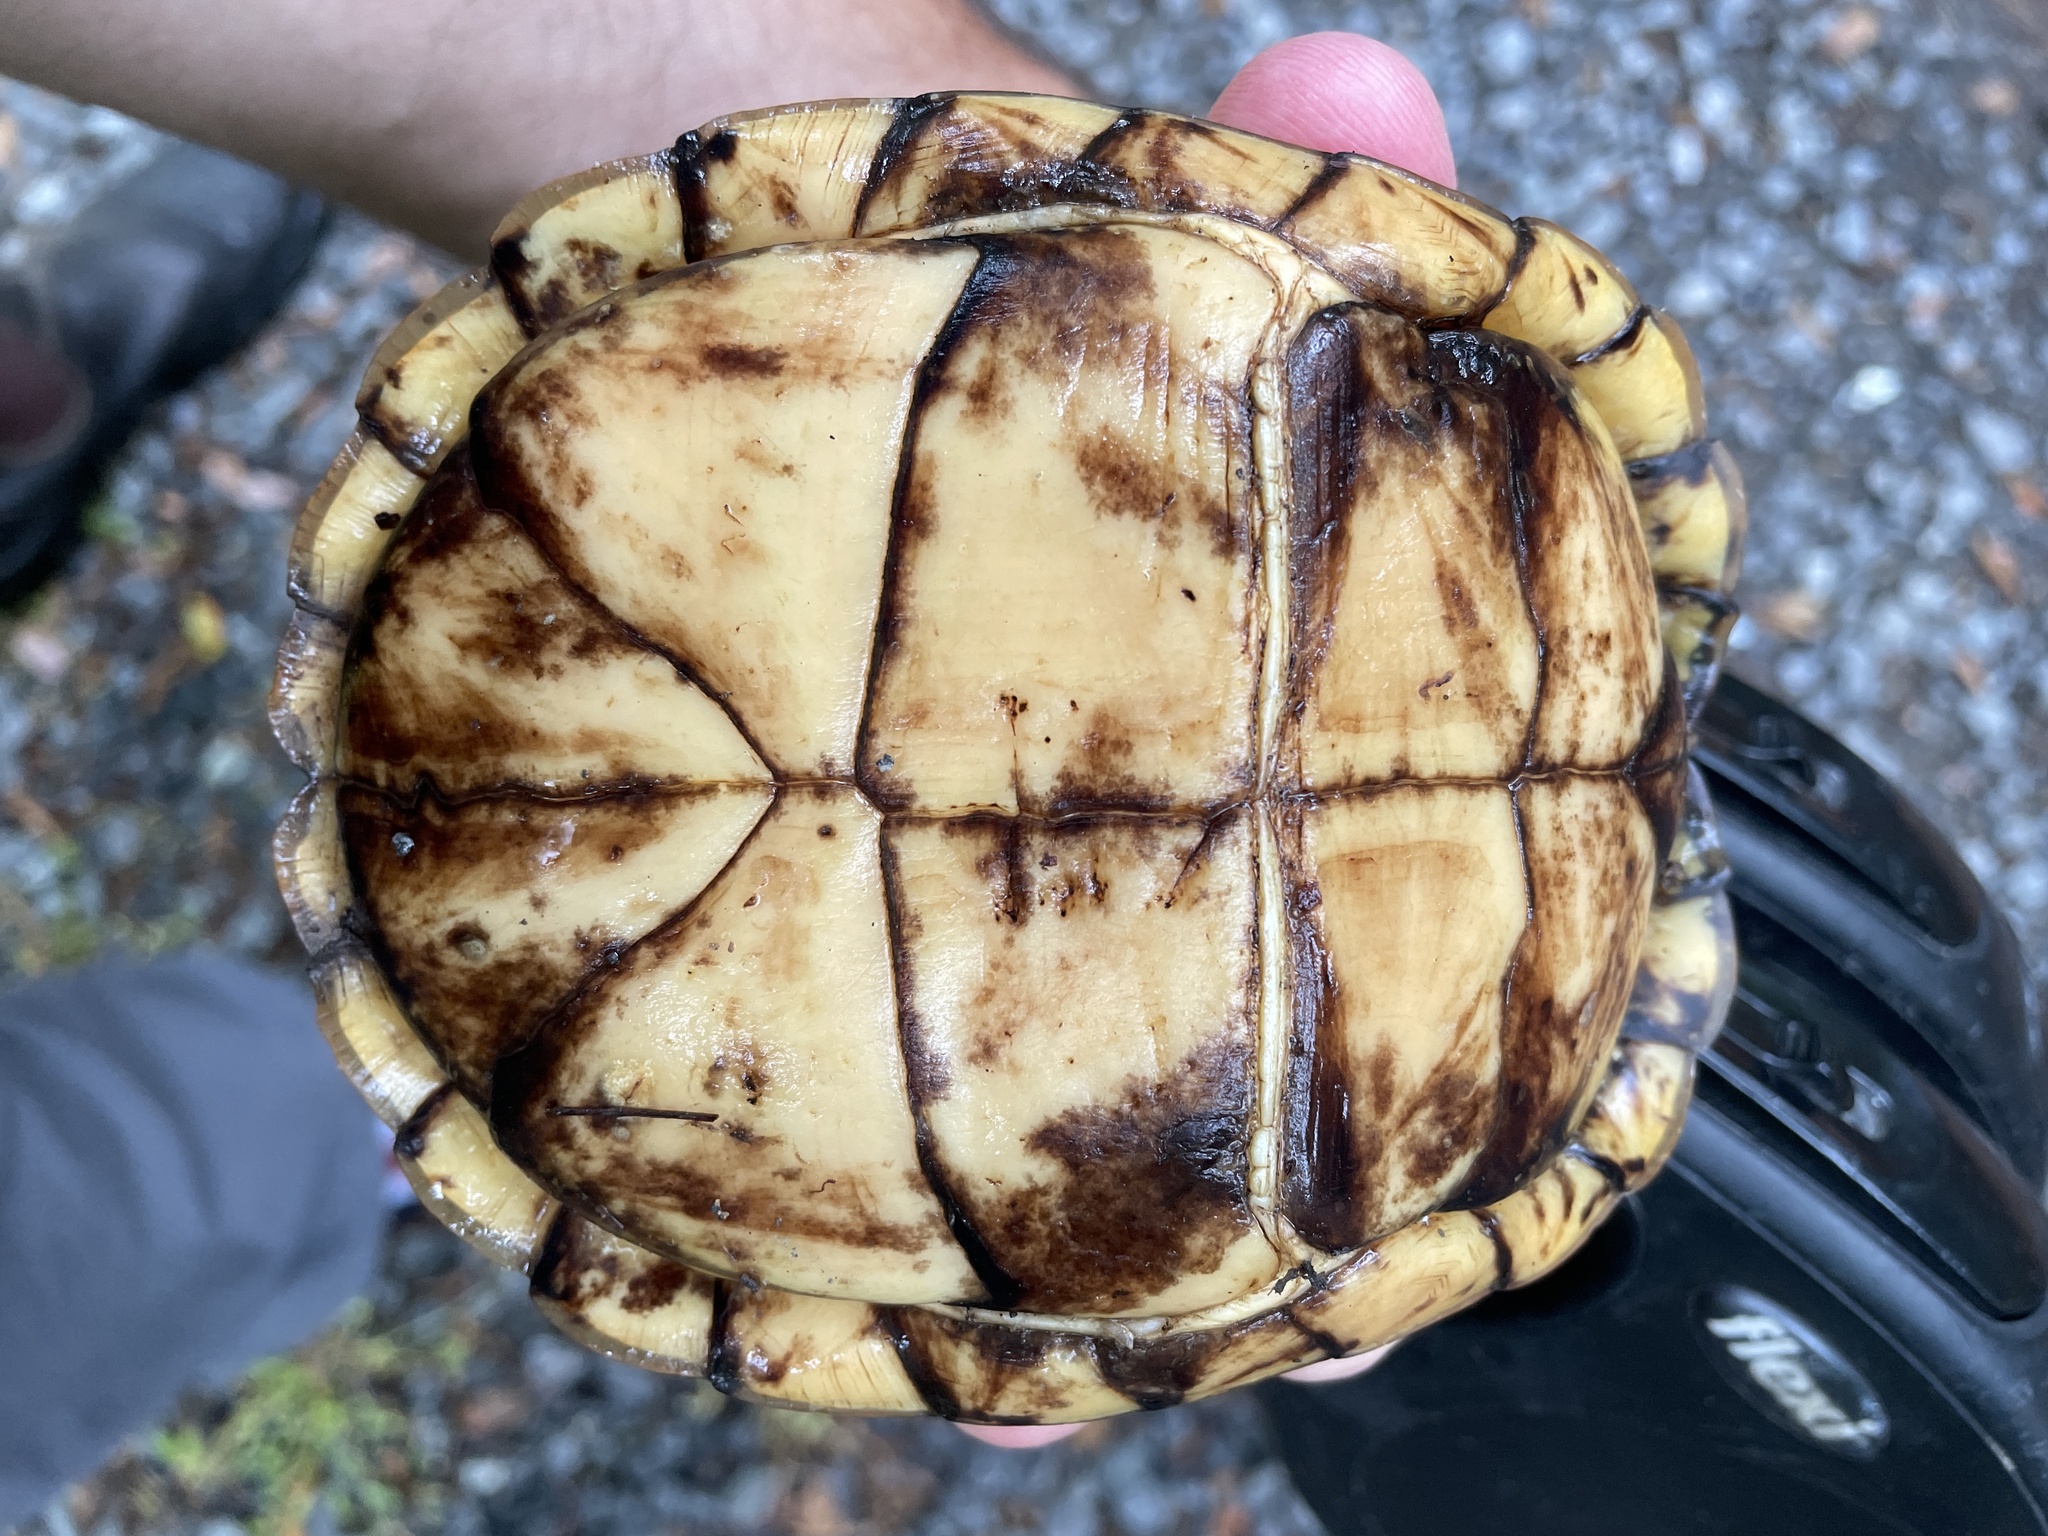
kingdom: Animalia
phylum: Chordata
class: Testudines
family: Emydidae
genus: Terrapene
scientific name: Terrapene carolina
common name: Common box turtle
